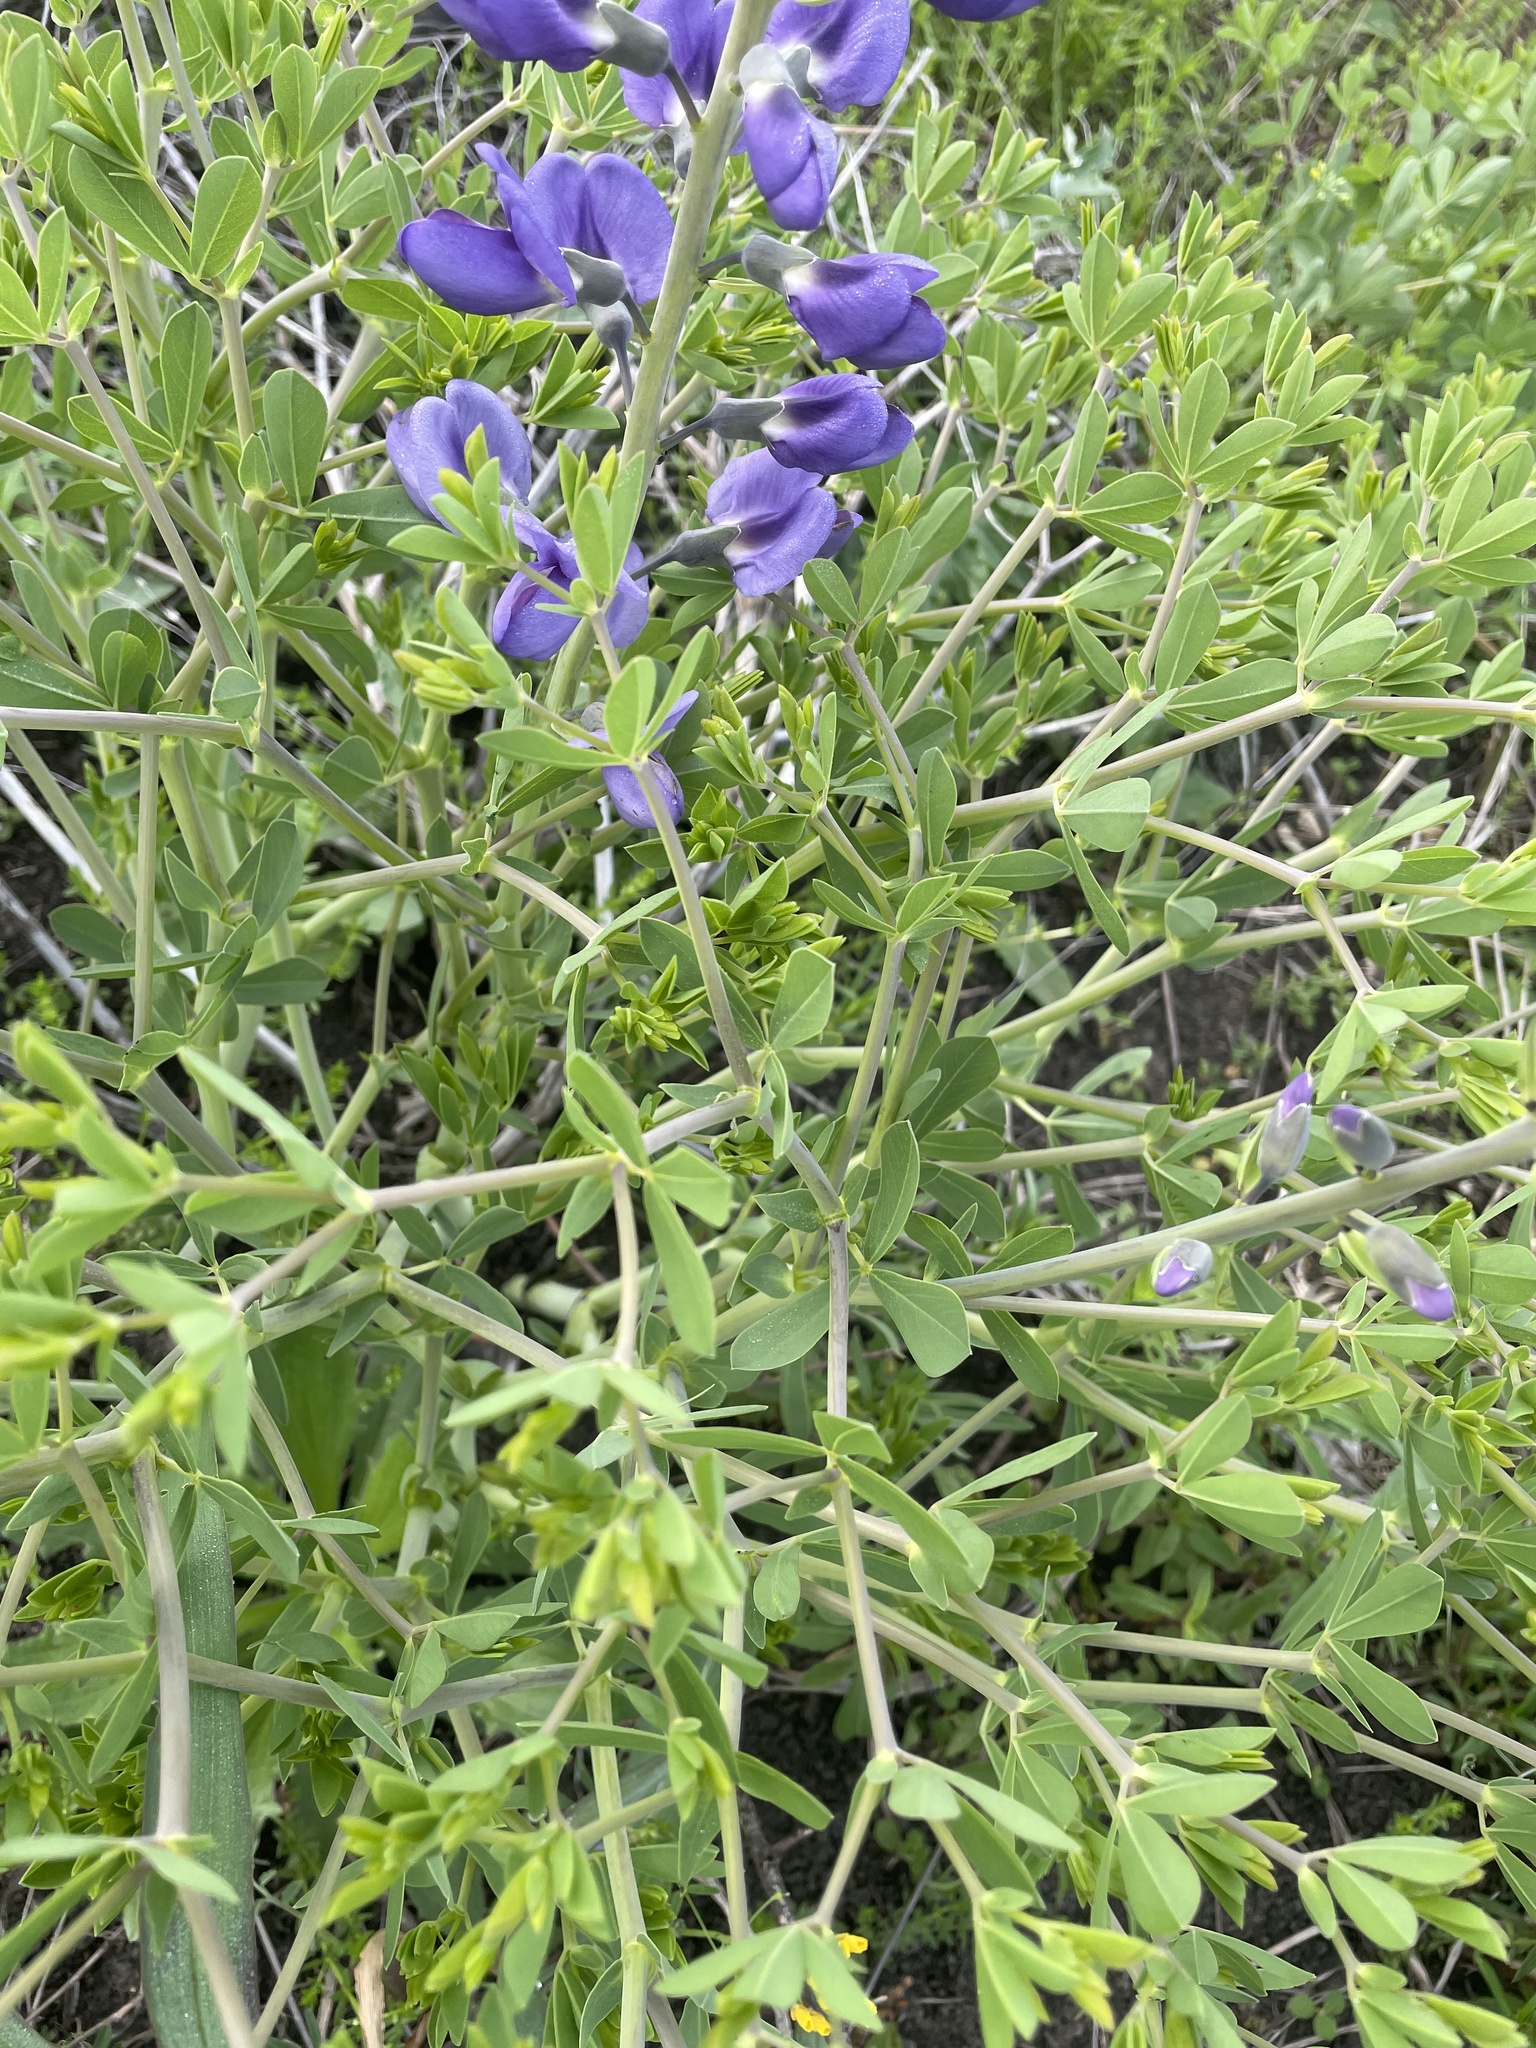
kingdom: Plantae
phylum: Tracheophyta
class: Magnoliopsida
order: Fabales
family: Fabaceae
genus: Baptisia
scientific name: Baptisia australis
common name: Blue false indigo
